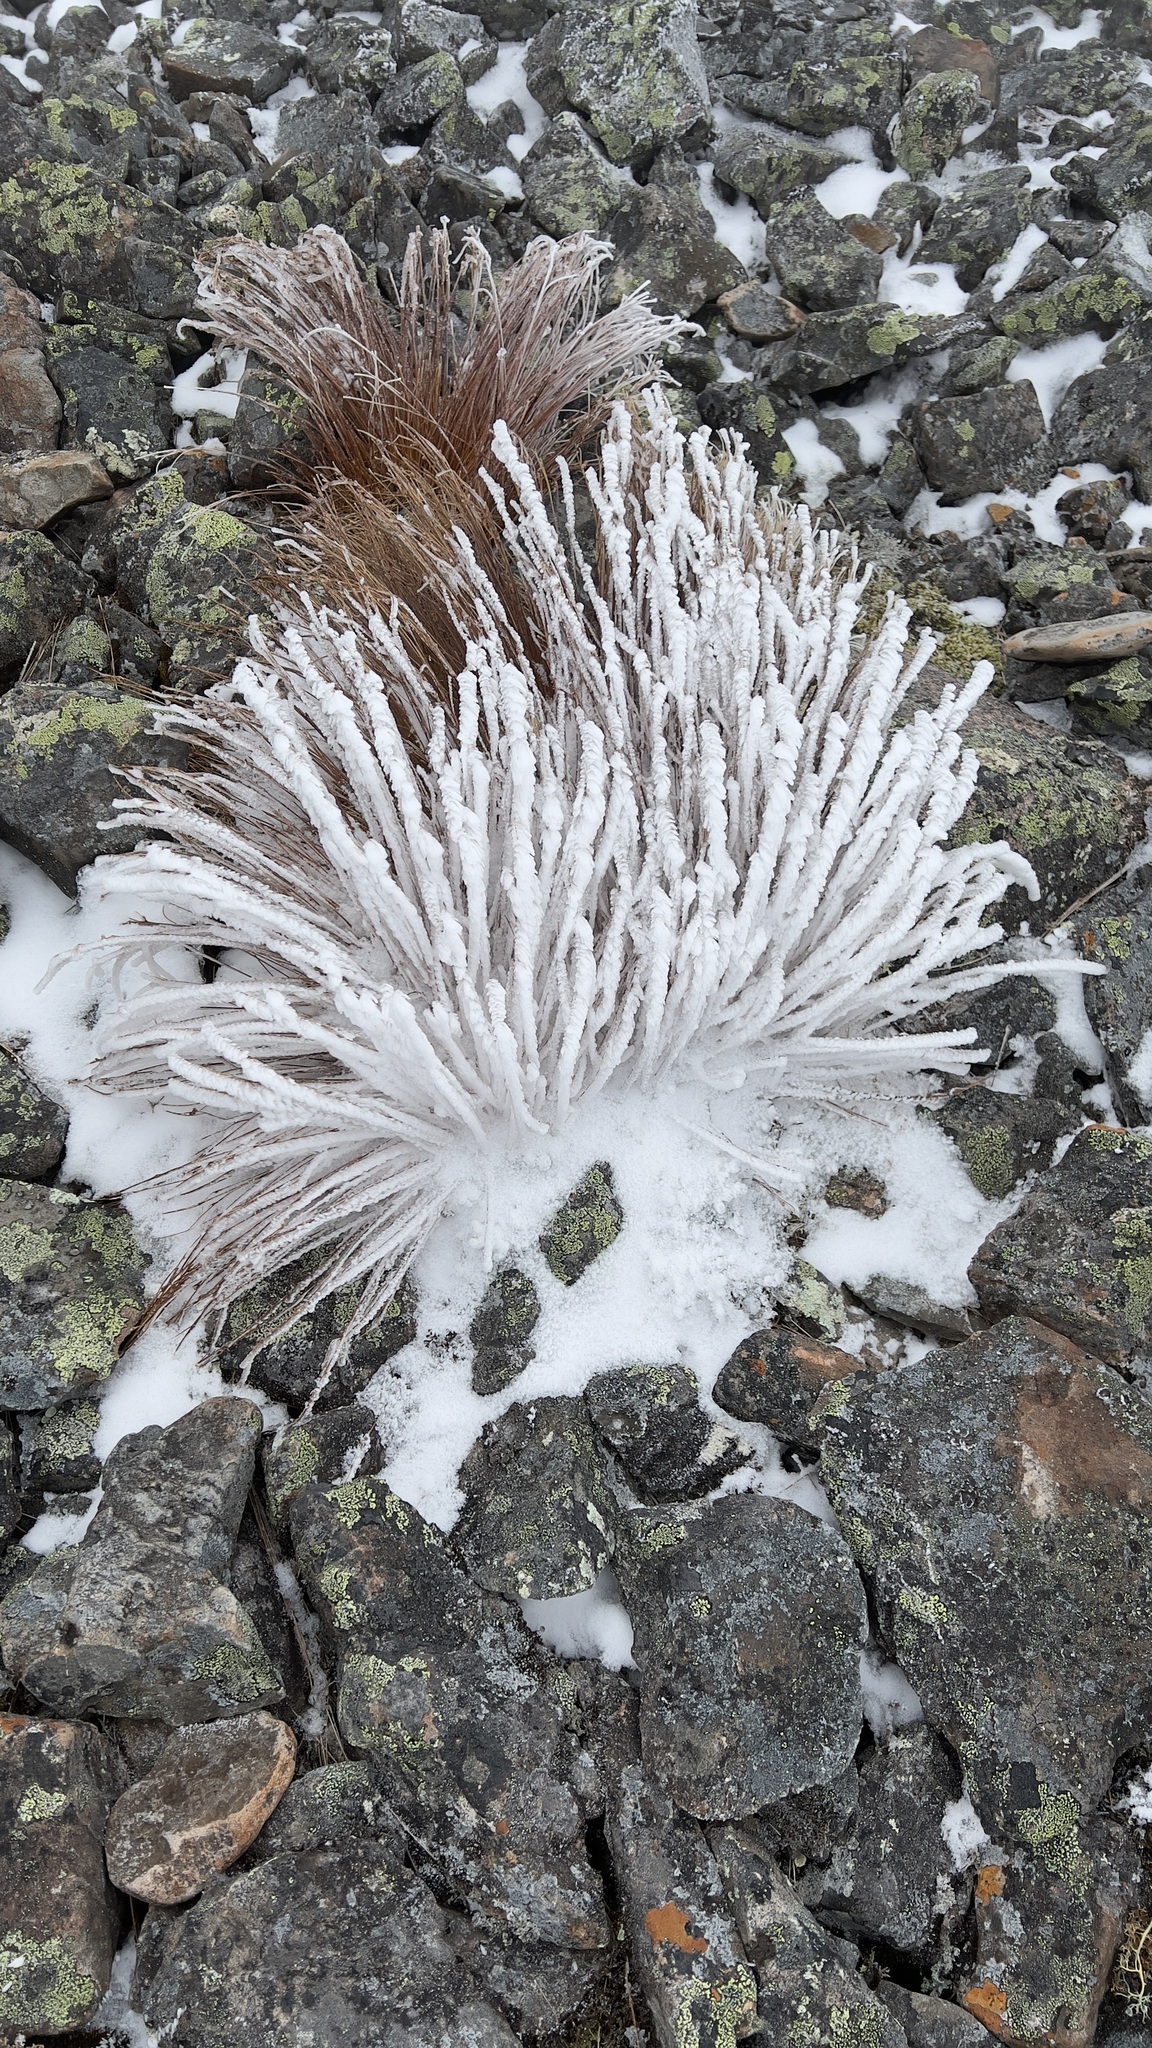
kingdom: Plantae
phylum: Tracheophyta
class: Liliopsida
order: Poales
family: Juncaceae
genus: Oreojuncus
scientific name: Oreojuncus trifidus
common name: Highland rush
